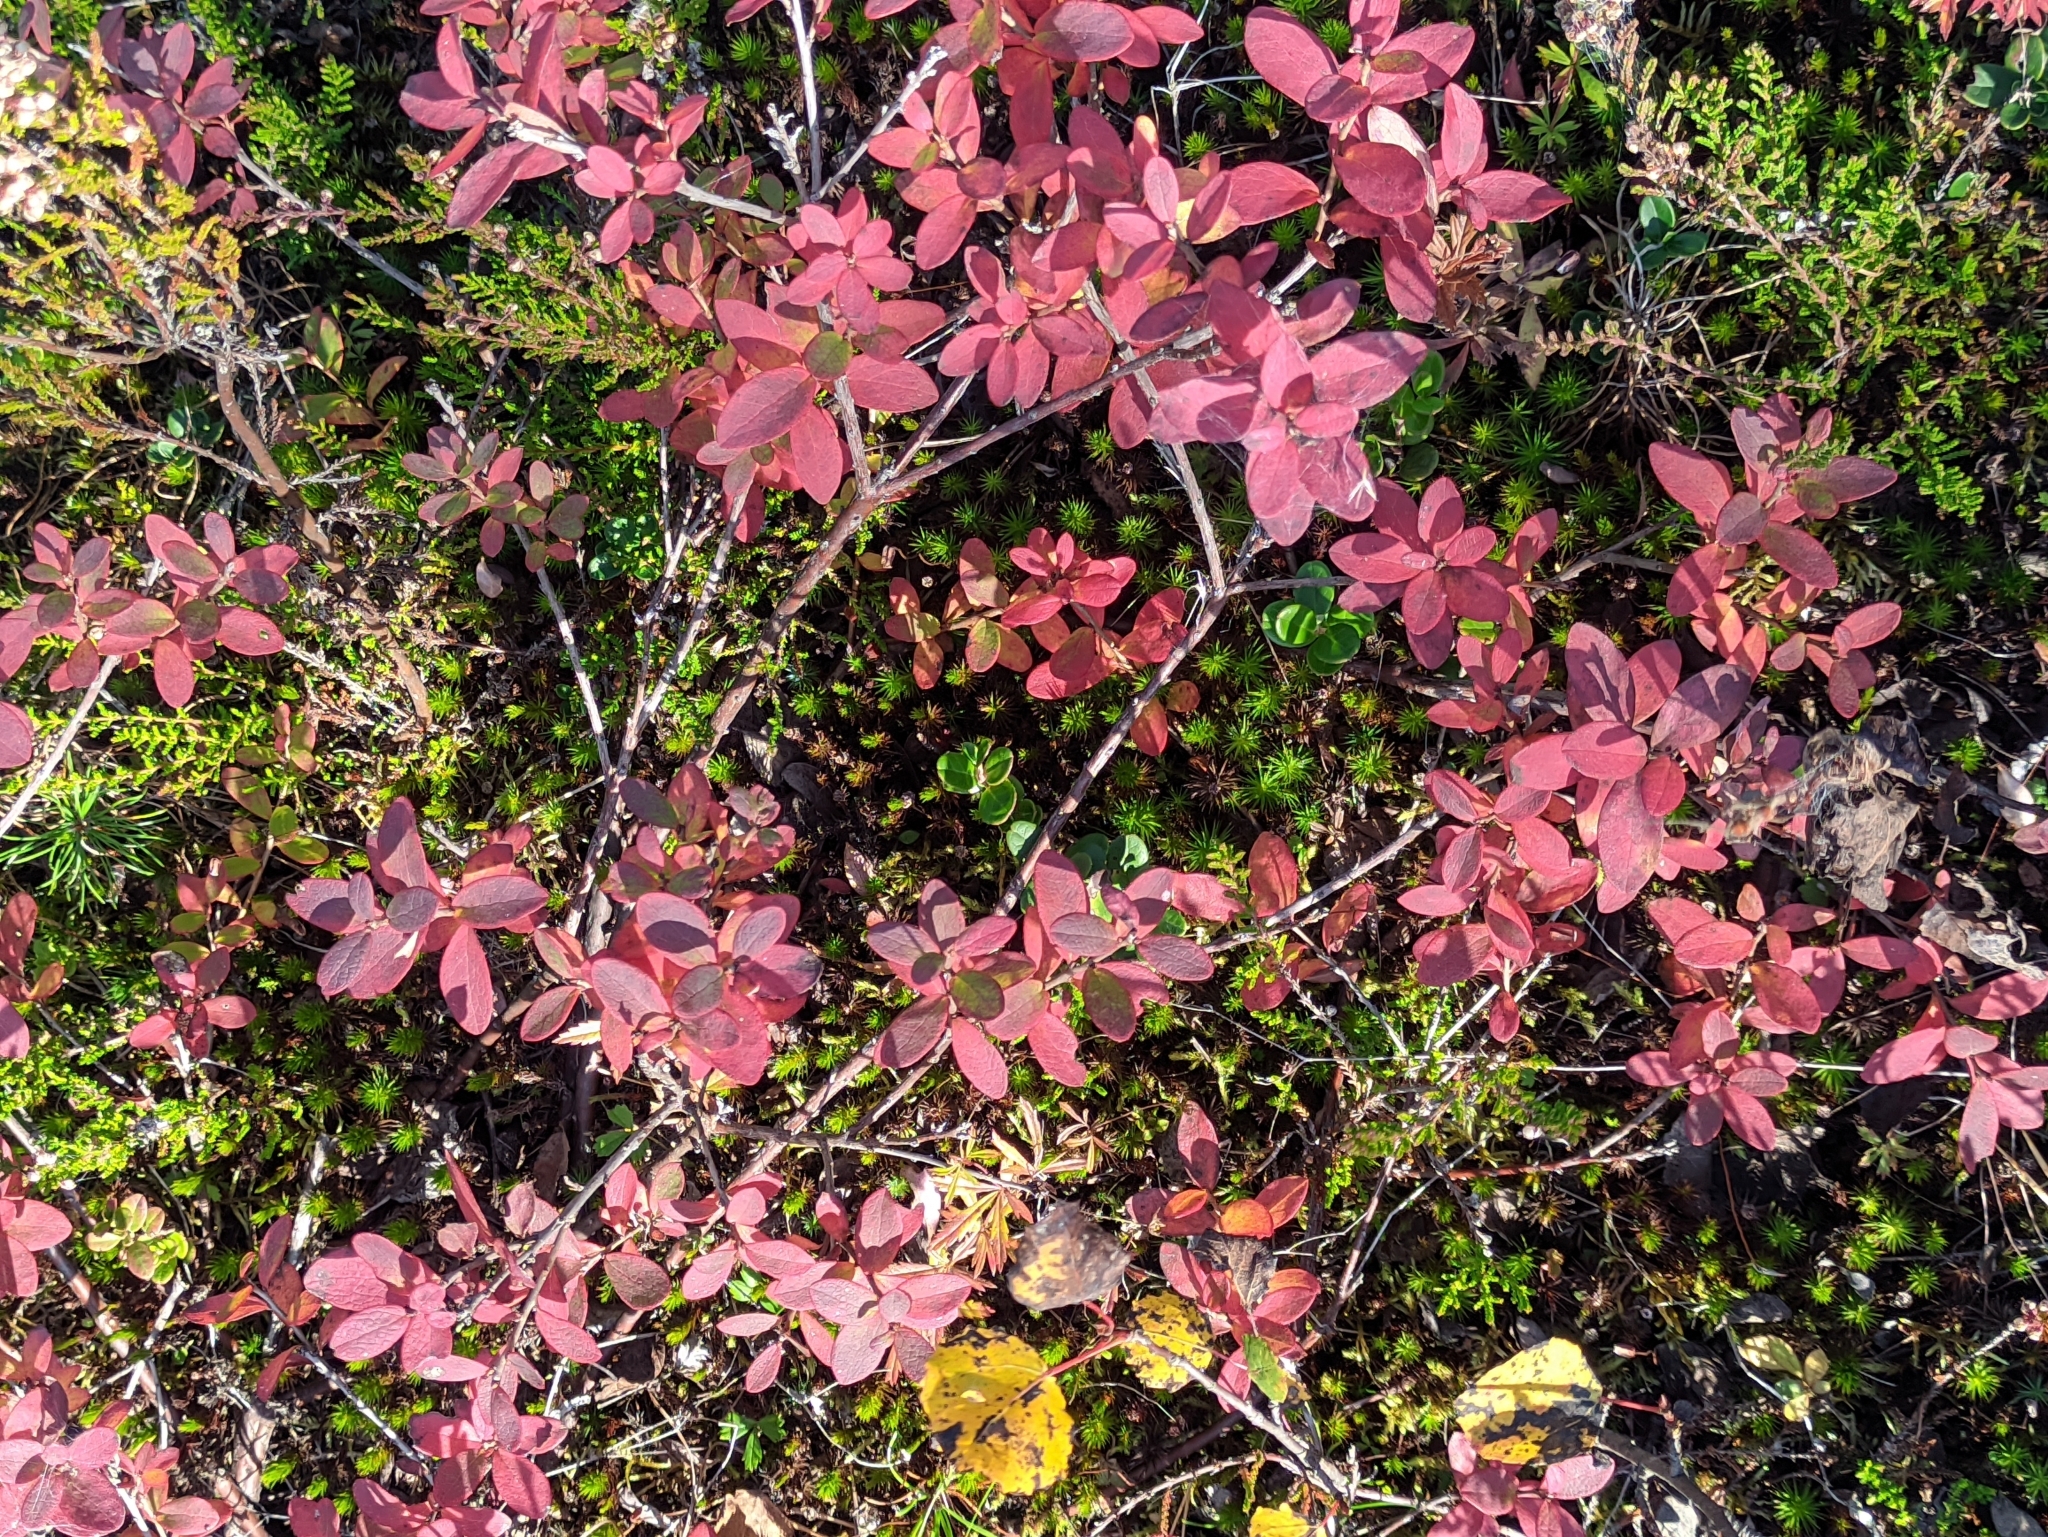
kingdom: Plantae
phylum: Tracheophyta
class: Magnoliopsida
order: Ericales
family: Ericaceae
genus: Vaccinium
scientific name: Vaccinium uliginosum
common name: Bog bilberry
